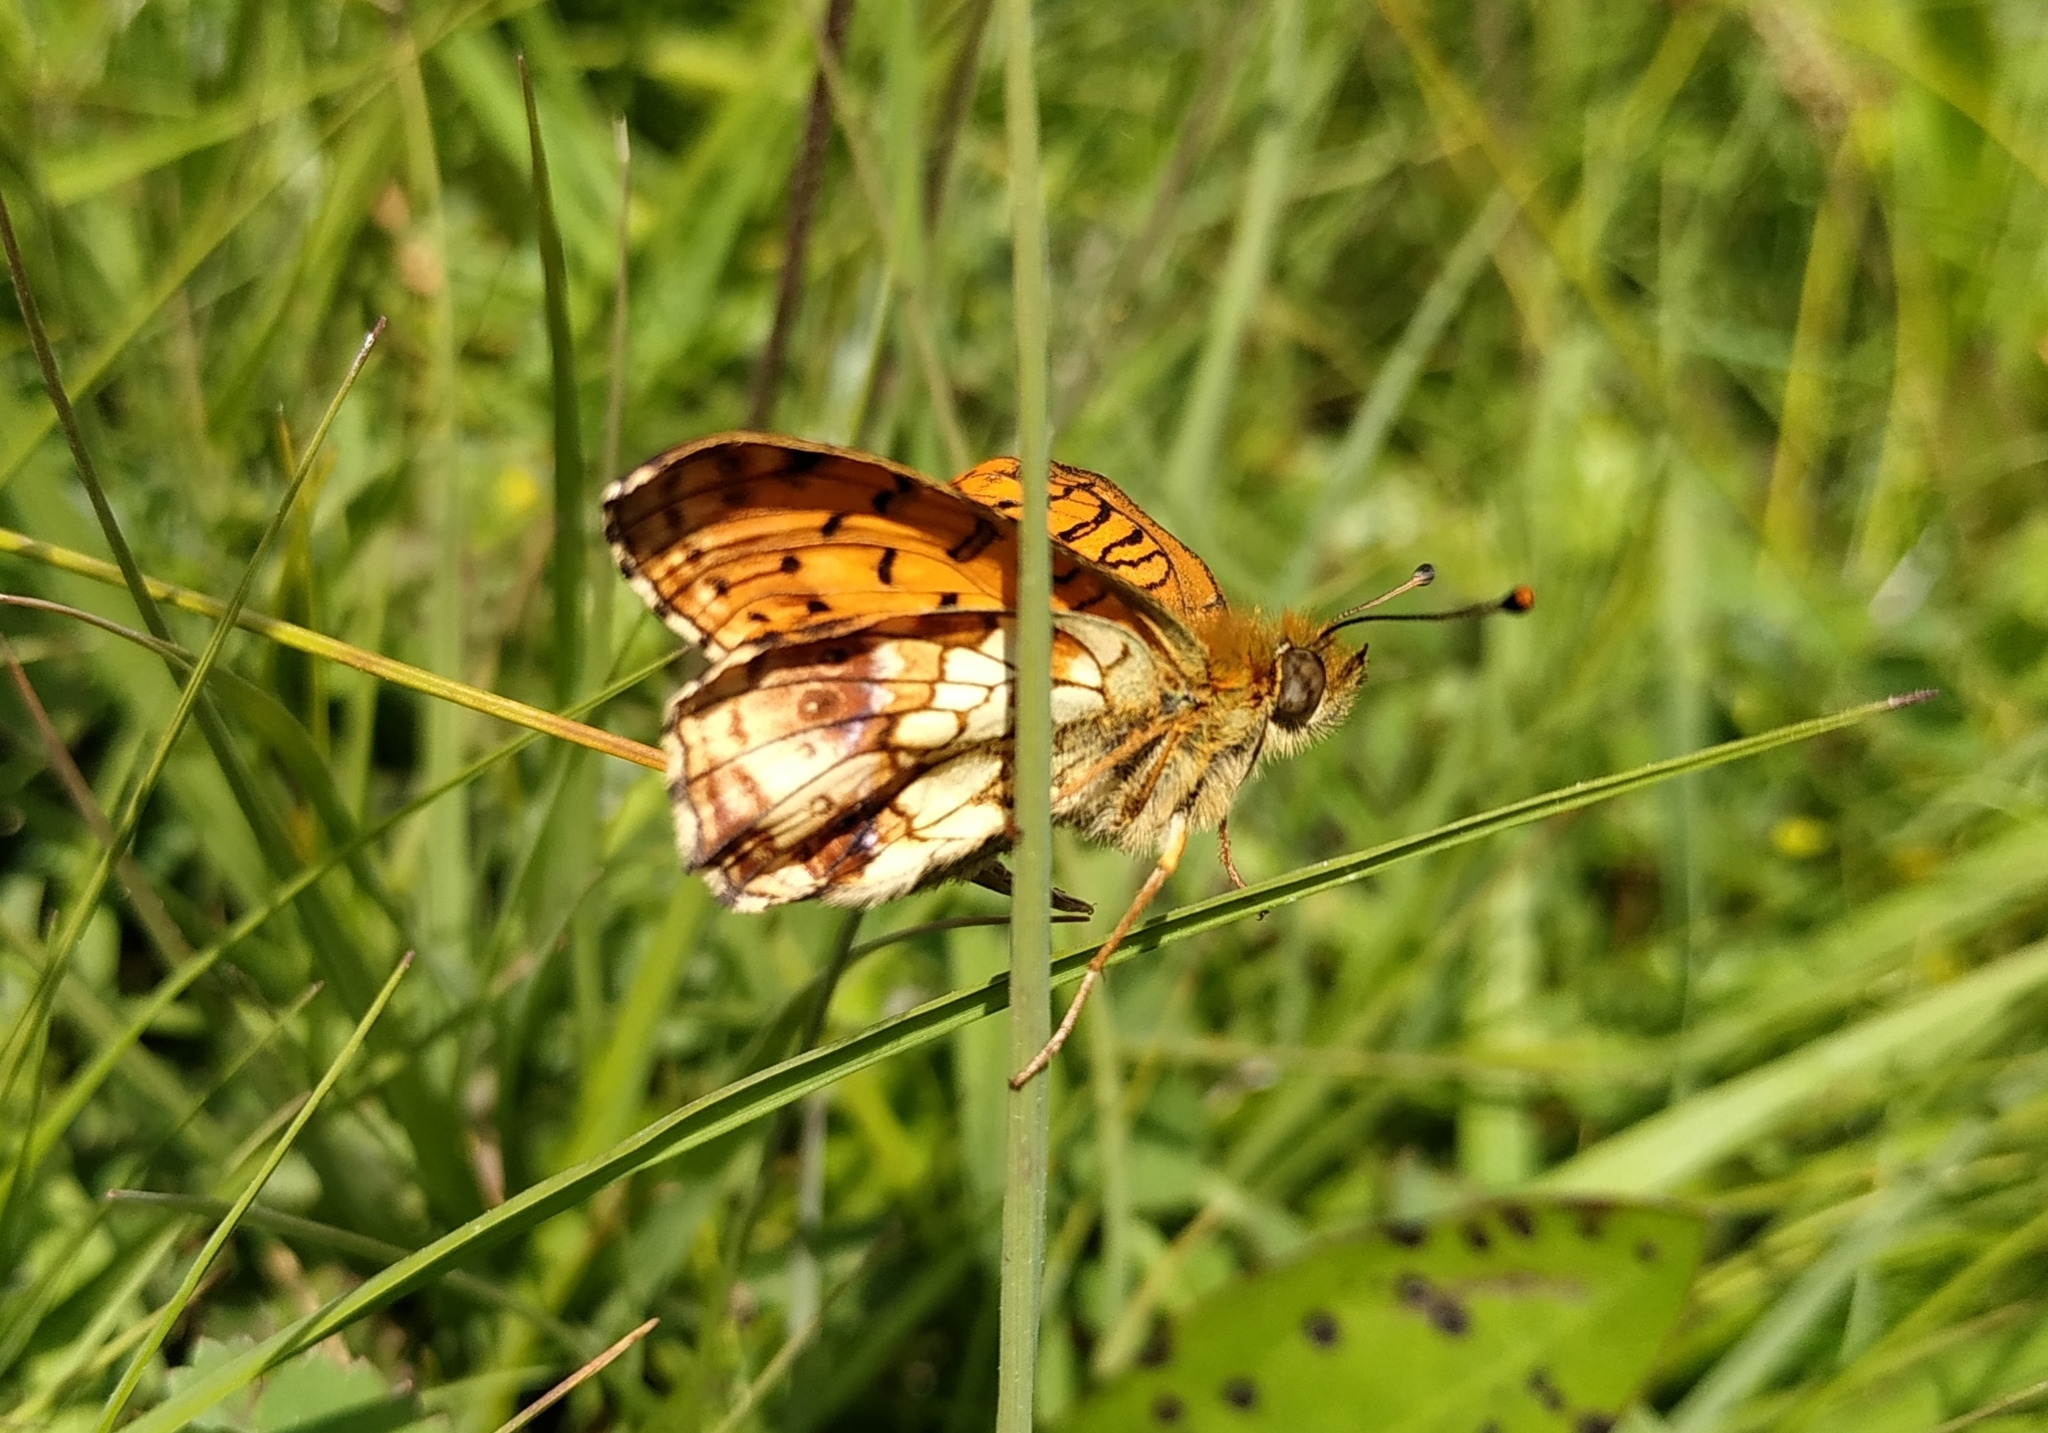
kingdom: Animalia
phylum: Arthropoda
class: Insecta
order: Lepidoptera
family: Nymphalidae
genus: Brenthis
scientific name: Brenthis ino
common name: Lesser marbled fritillary
